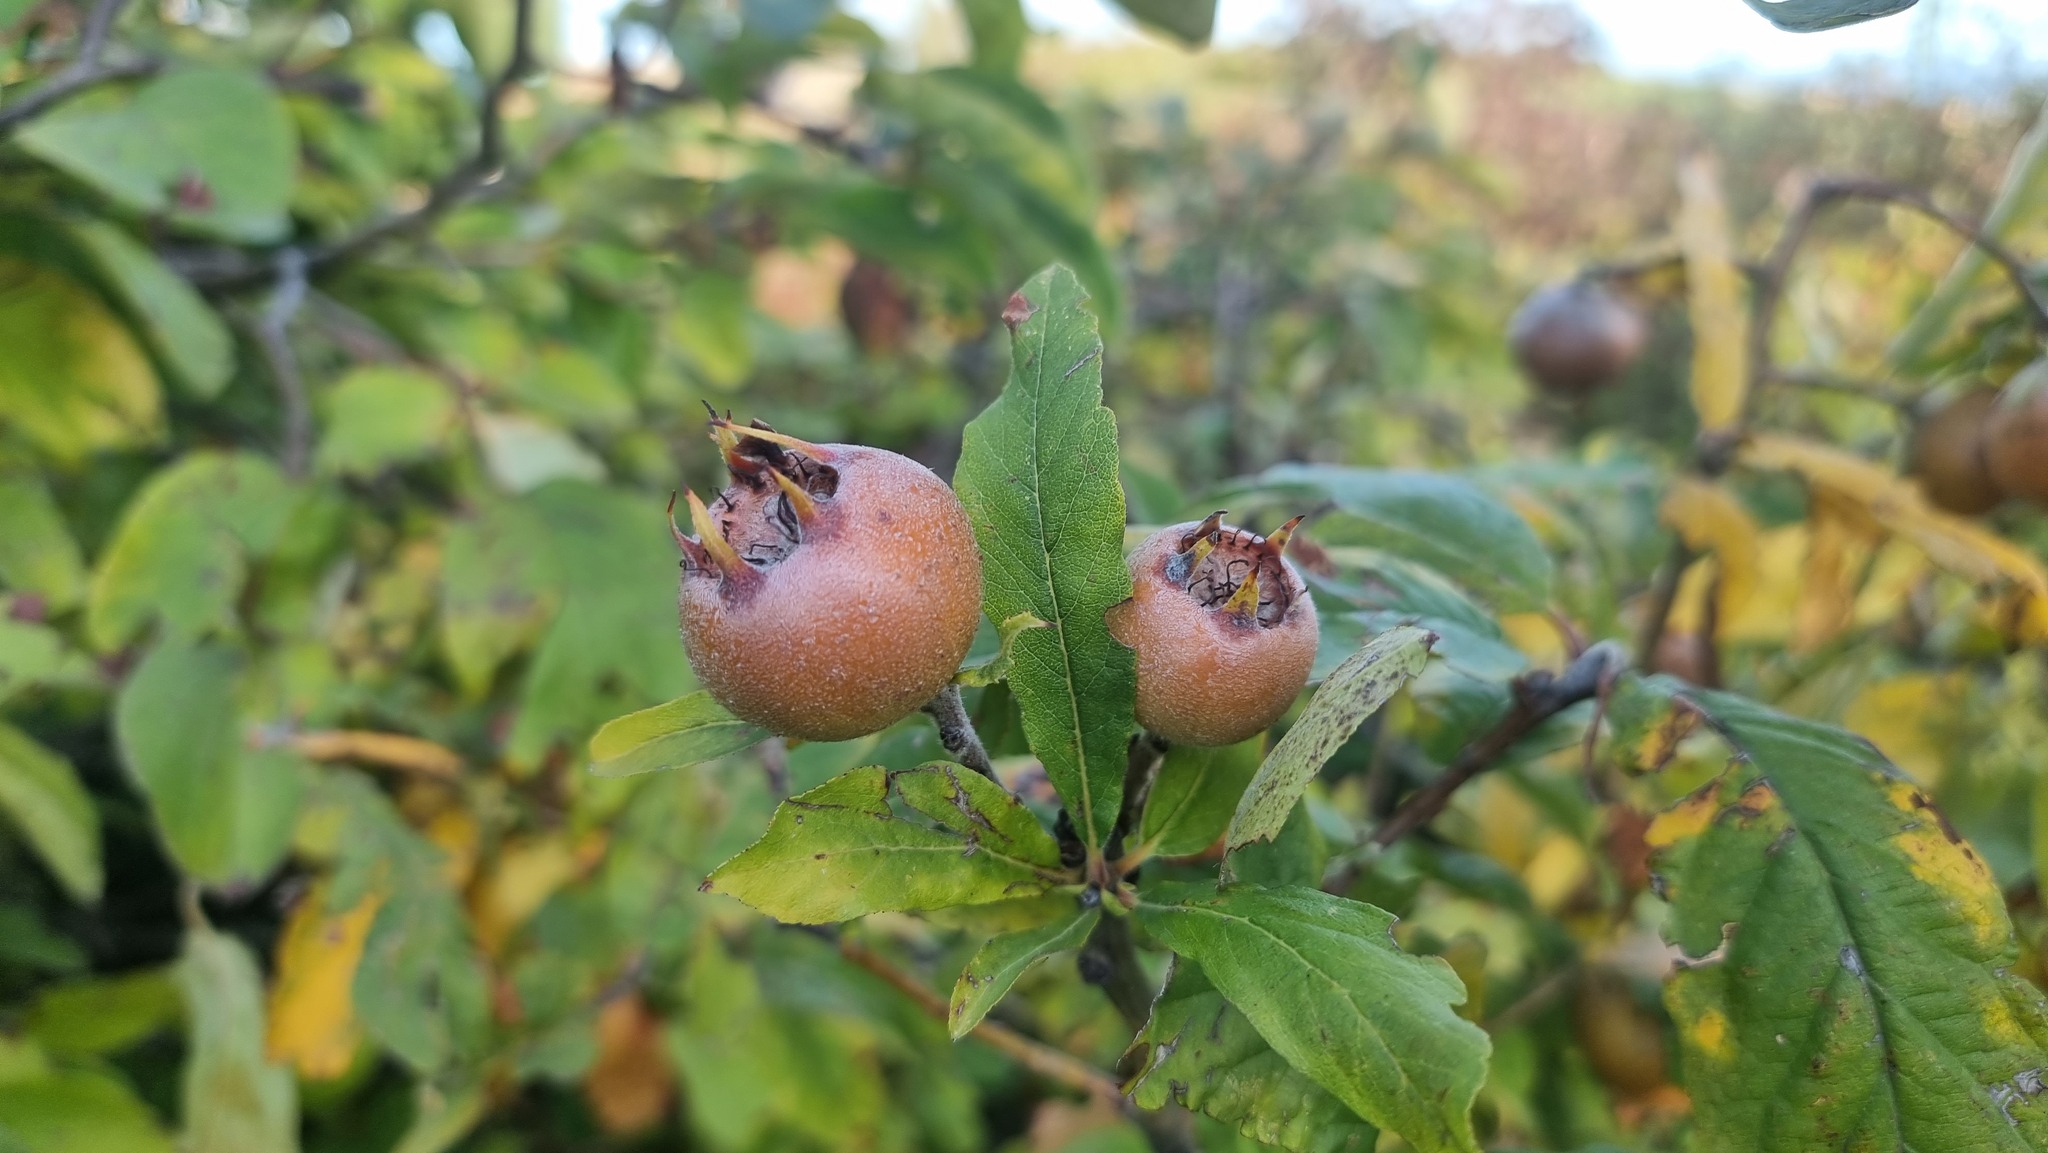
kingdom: Plantae
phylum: Tracheophyta
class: Magnoliopsida
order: Rosales
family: Rosaceae
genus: Mespilus
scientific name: Mespilus germanica
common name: Medlar
